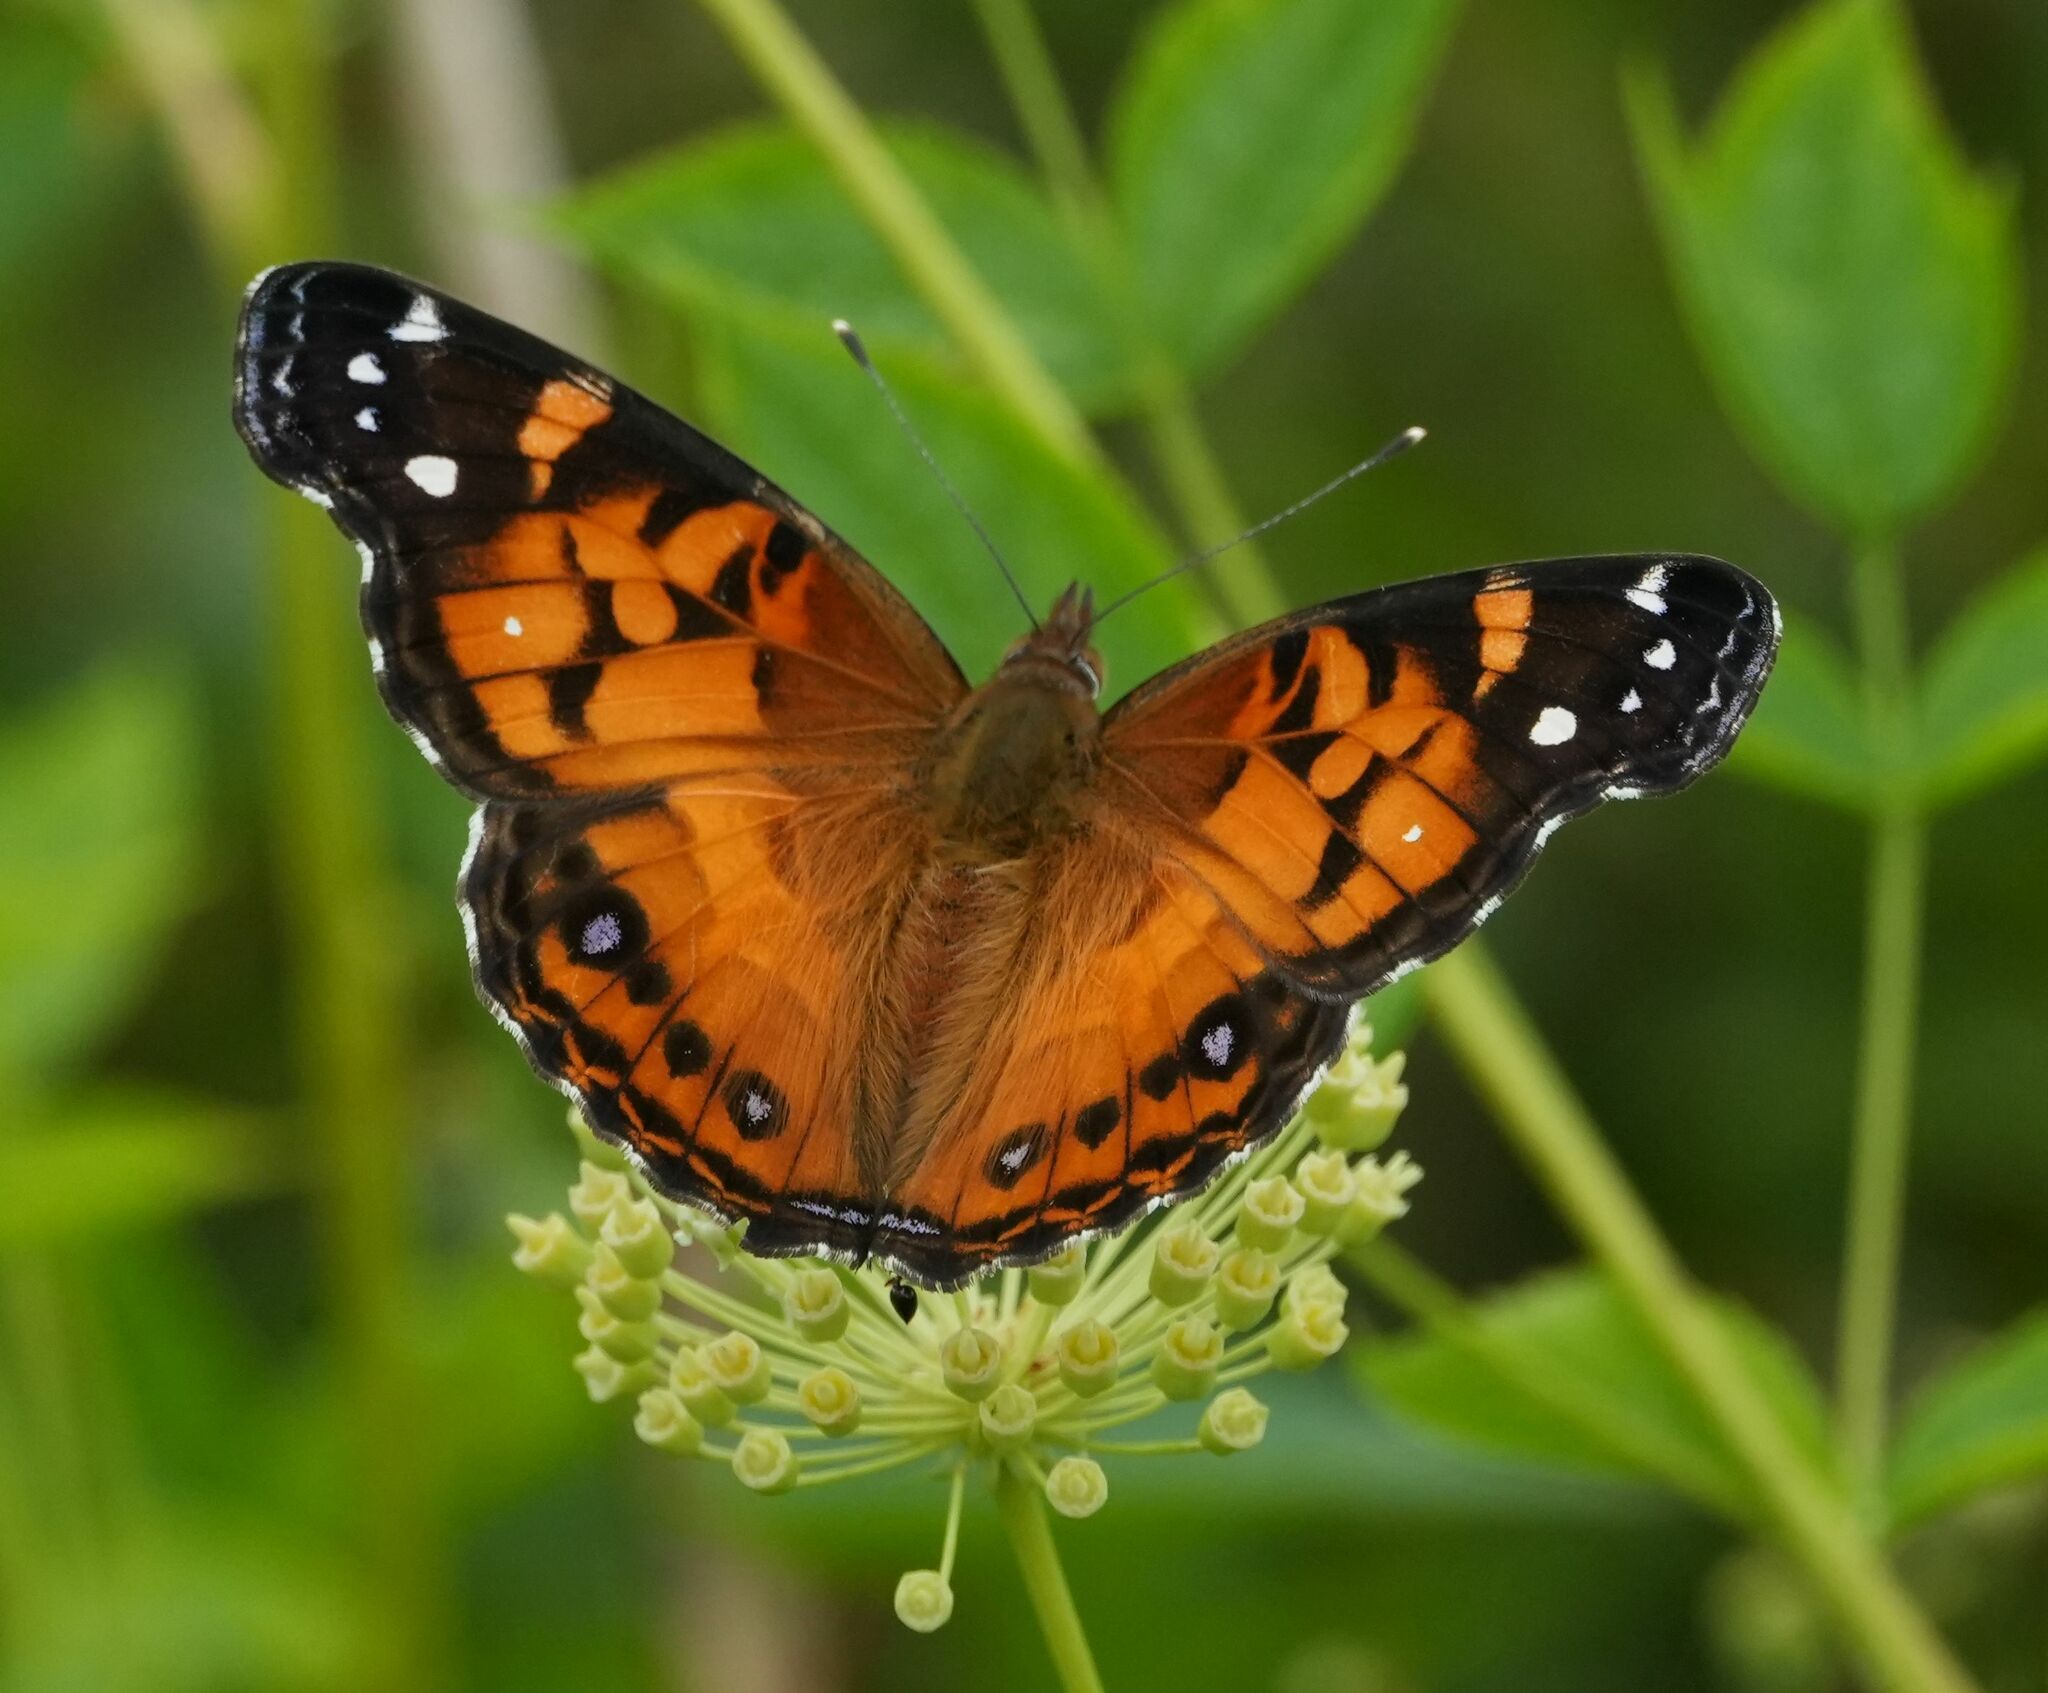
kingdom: Animalia
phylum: Arthropoda
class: Insecta
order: Lepidoptera
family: Nymphalidae
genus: Vanessa
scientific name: Vanessa virginiensis
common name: American lady
